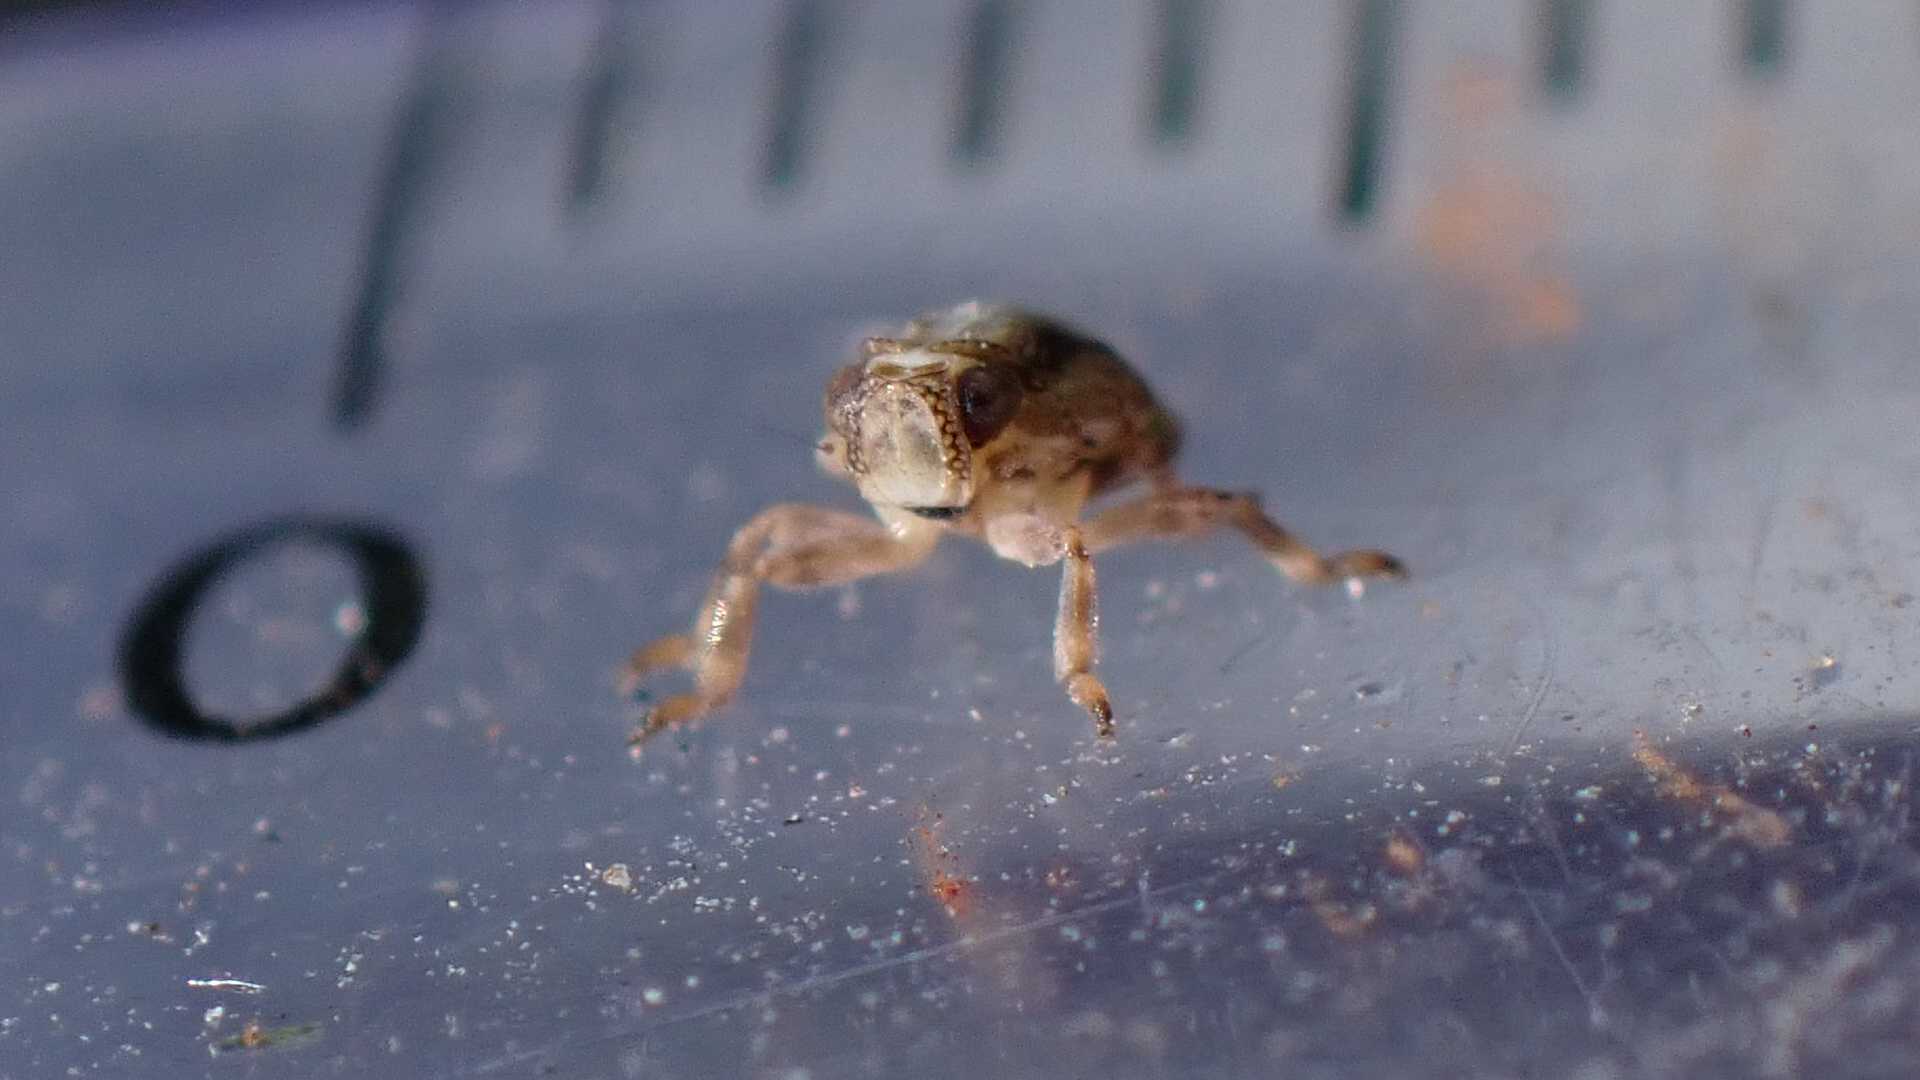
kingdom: Animalia
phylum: Arthropoda
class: Insecta
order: Hemiptera
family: Issidae
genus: Issus
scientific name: Issus coleoptratus
